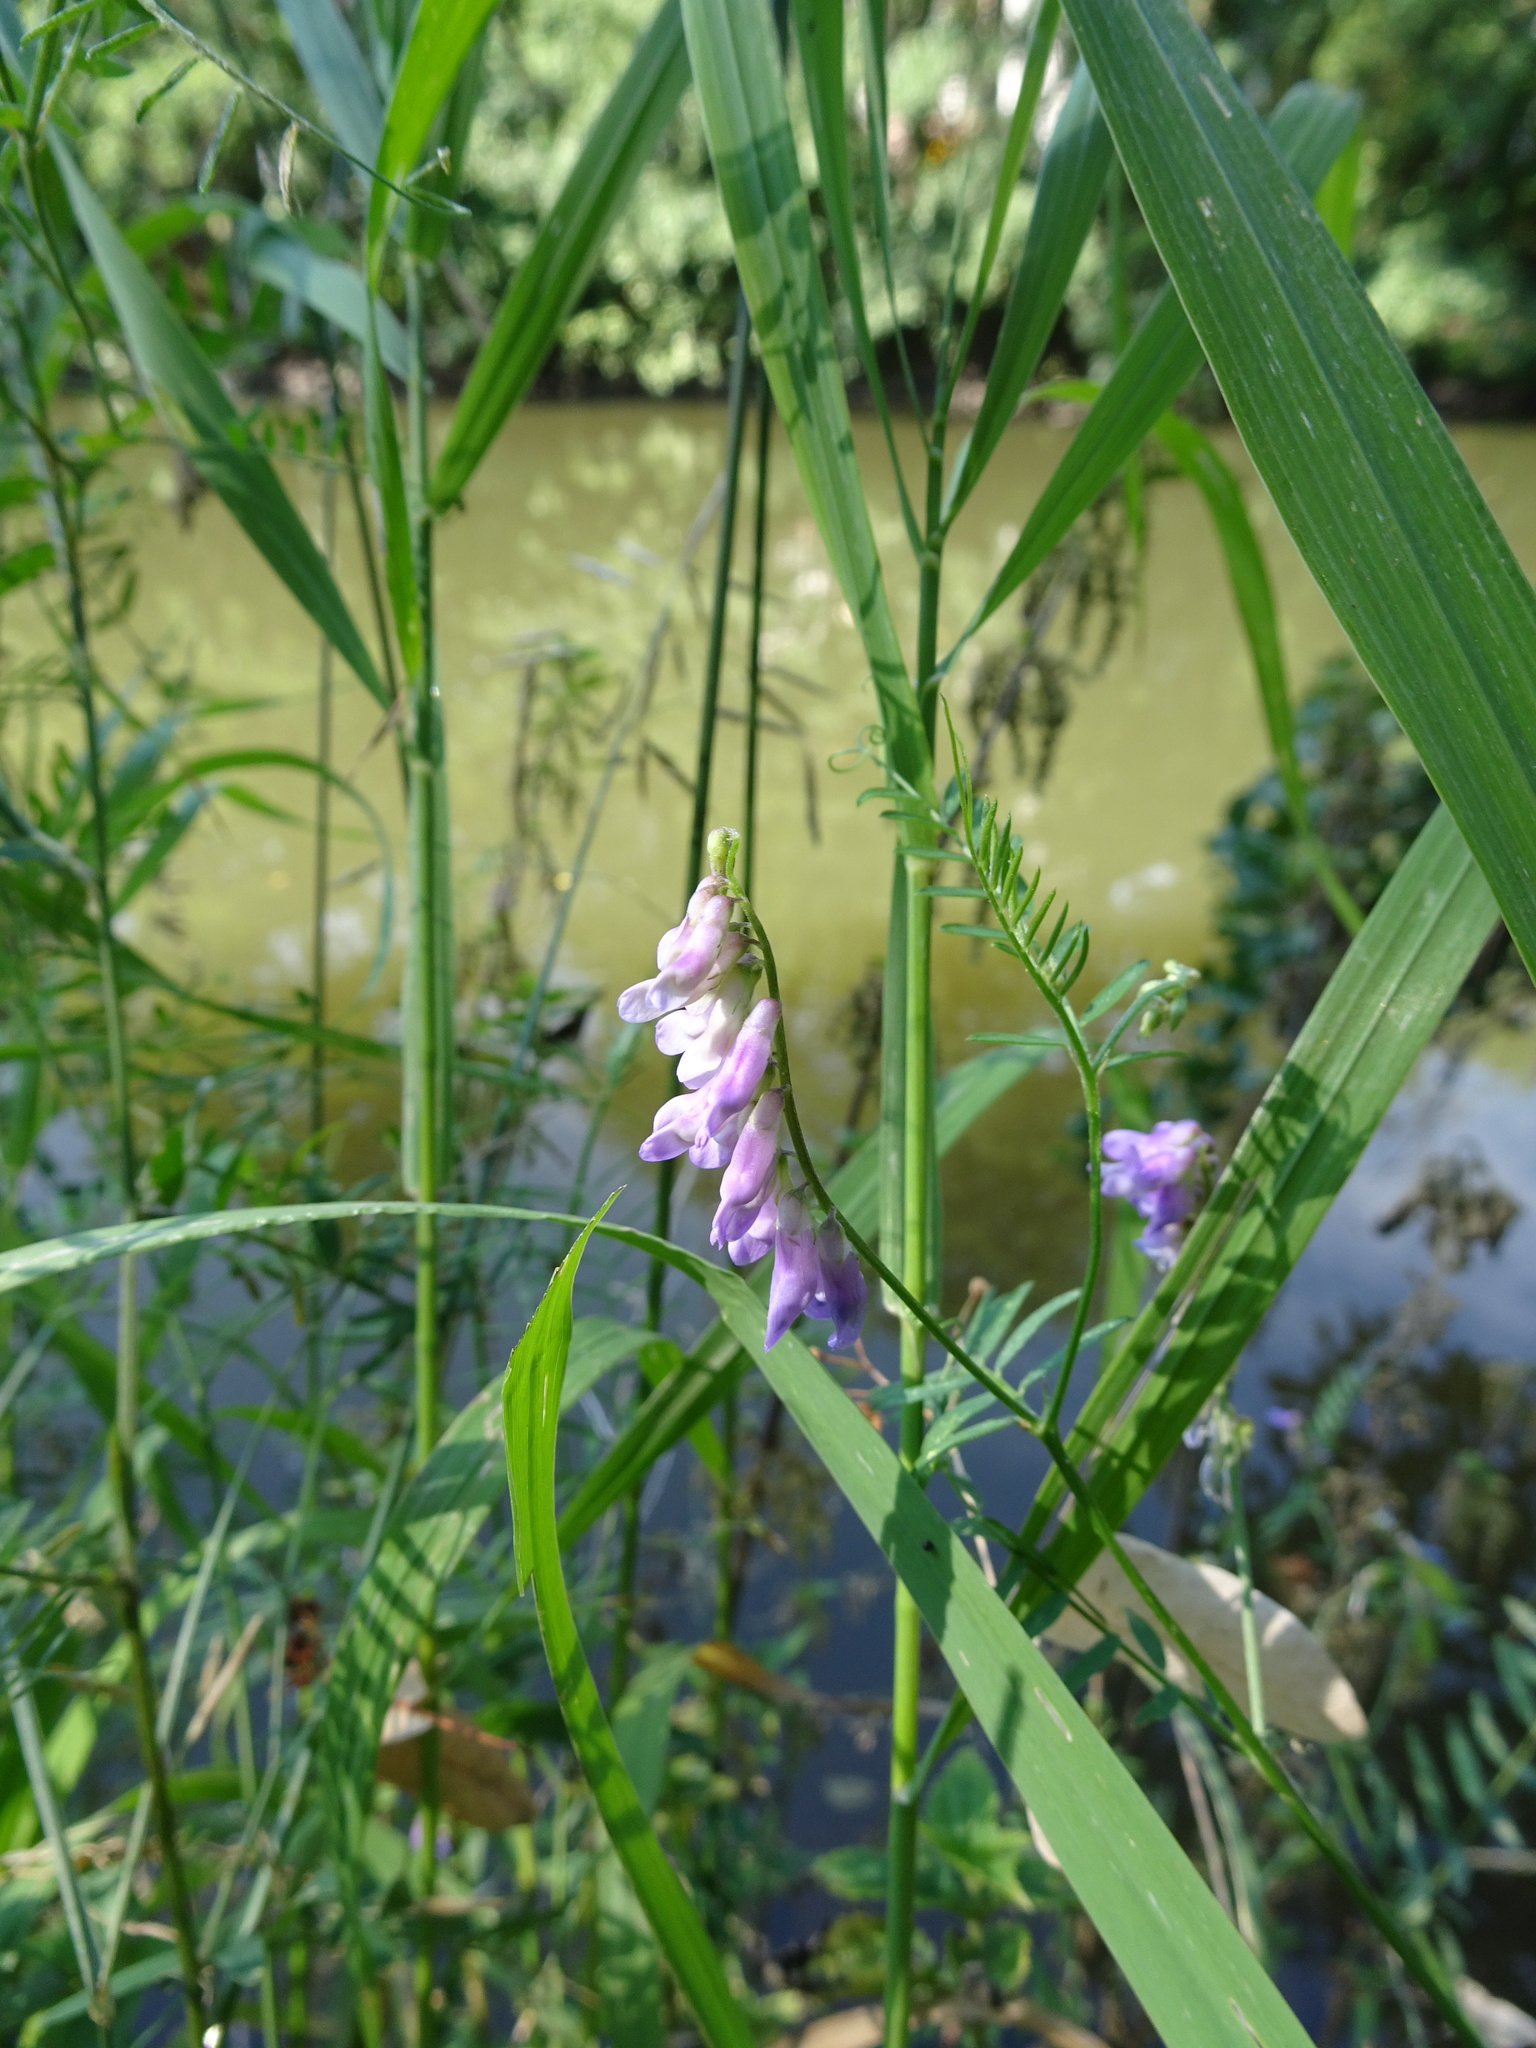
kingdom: Plantae
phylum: Tracheophyta
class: Magnoliopsida
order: Fabales
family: Fabaceae
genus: Vicia
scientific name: Vicia cracca
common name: Bird vetch
